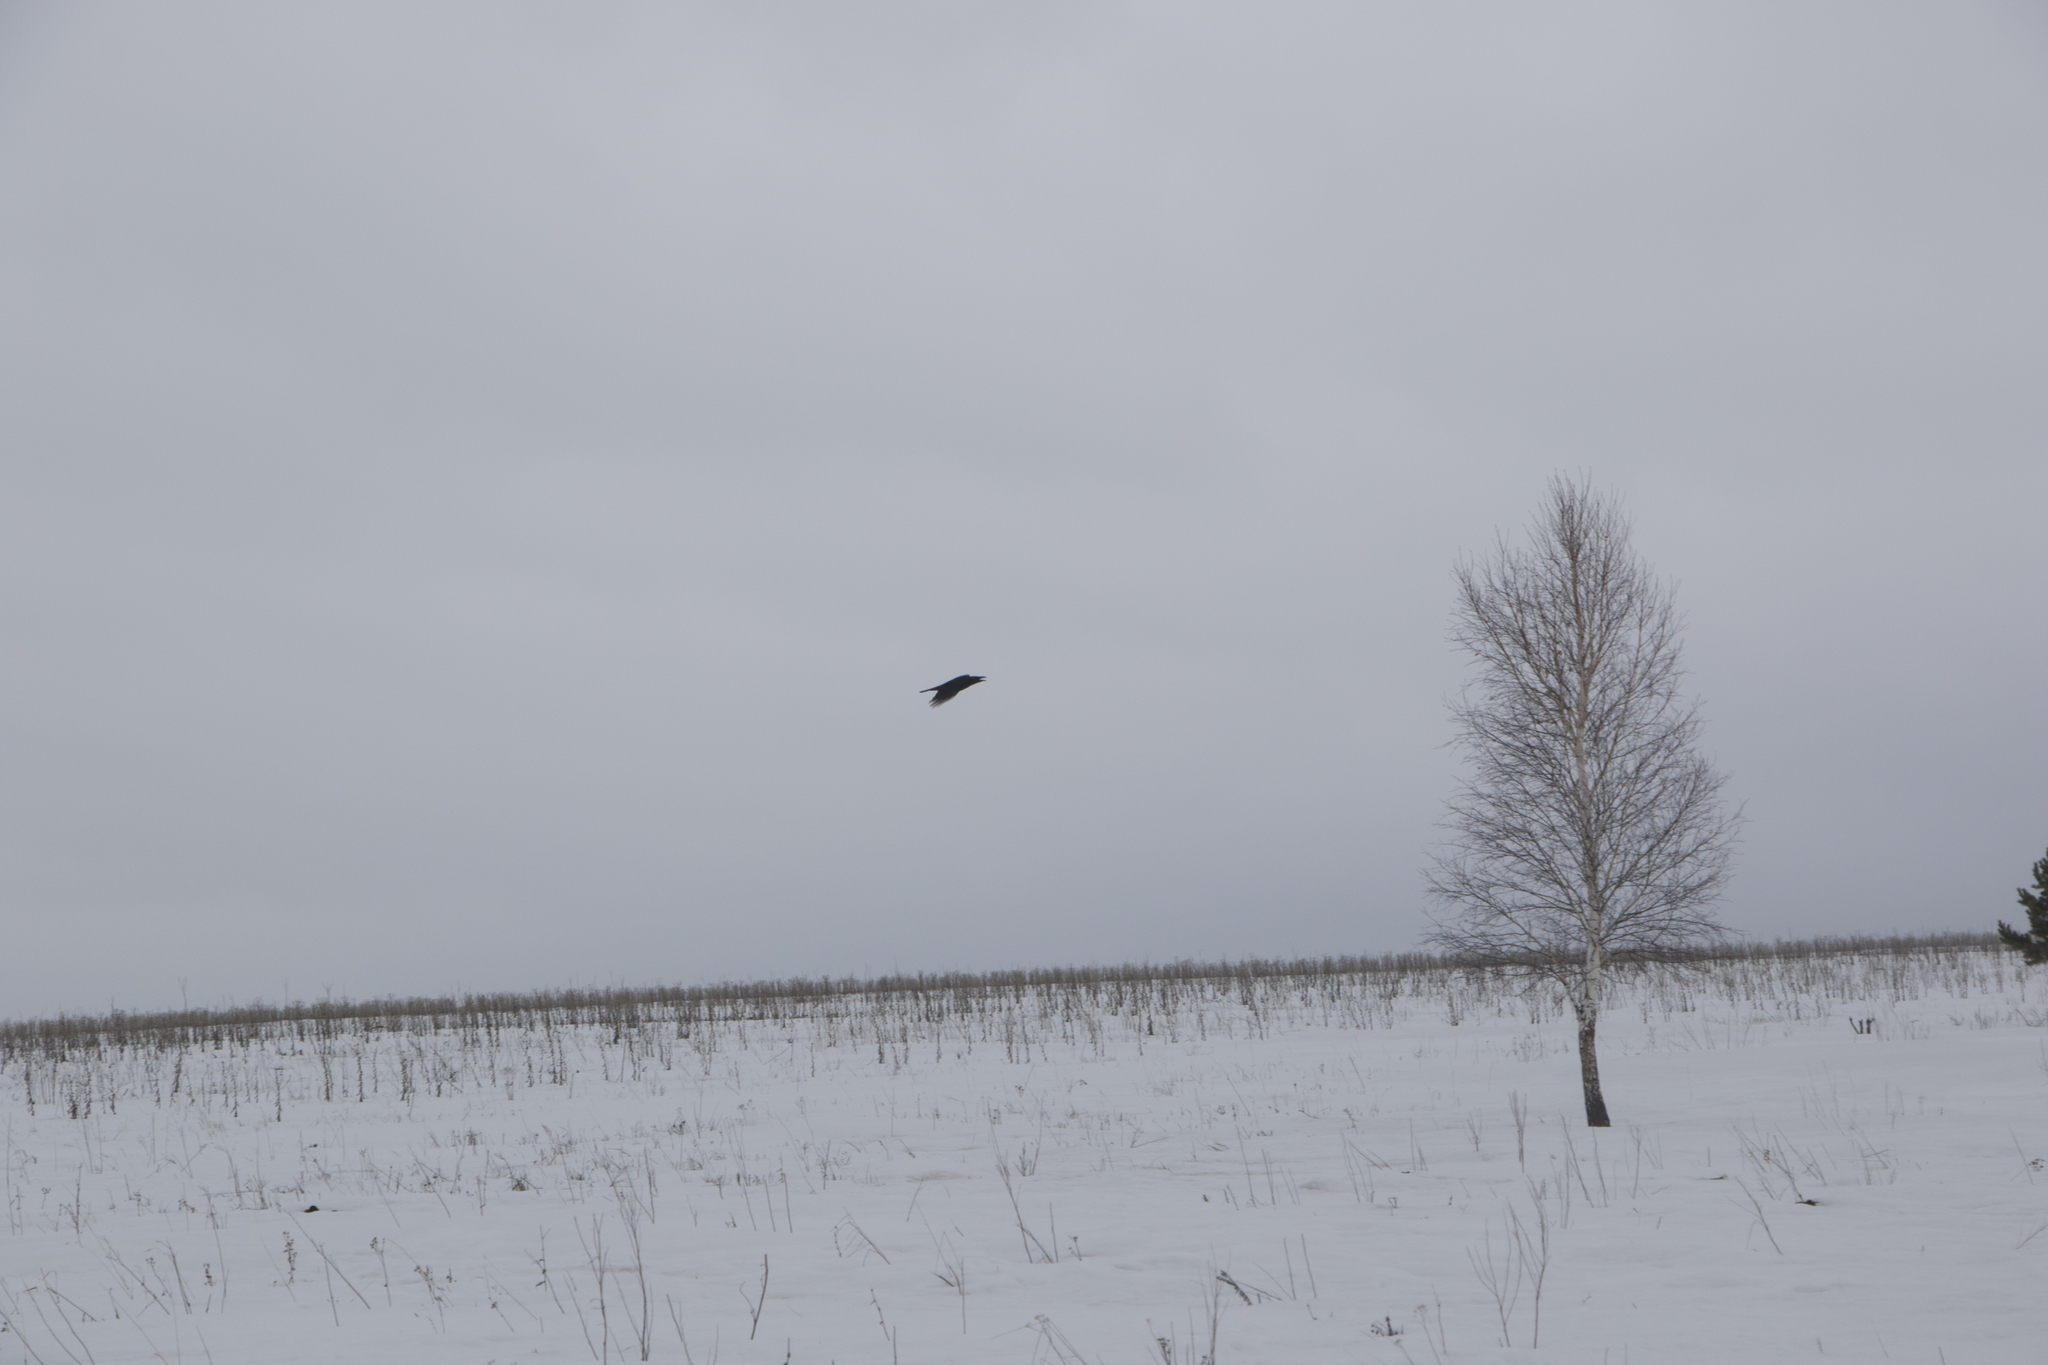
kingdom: Animalia
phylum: Chordata
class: Aves
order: Passeriformes
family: Corvidae
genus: Corvus
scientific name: Corvus corax
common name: Common raven
